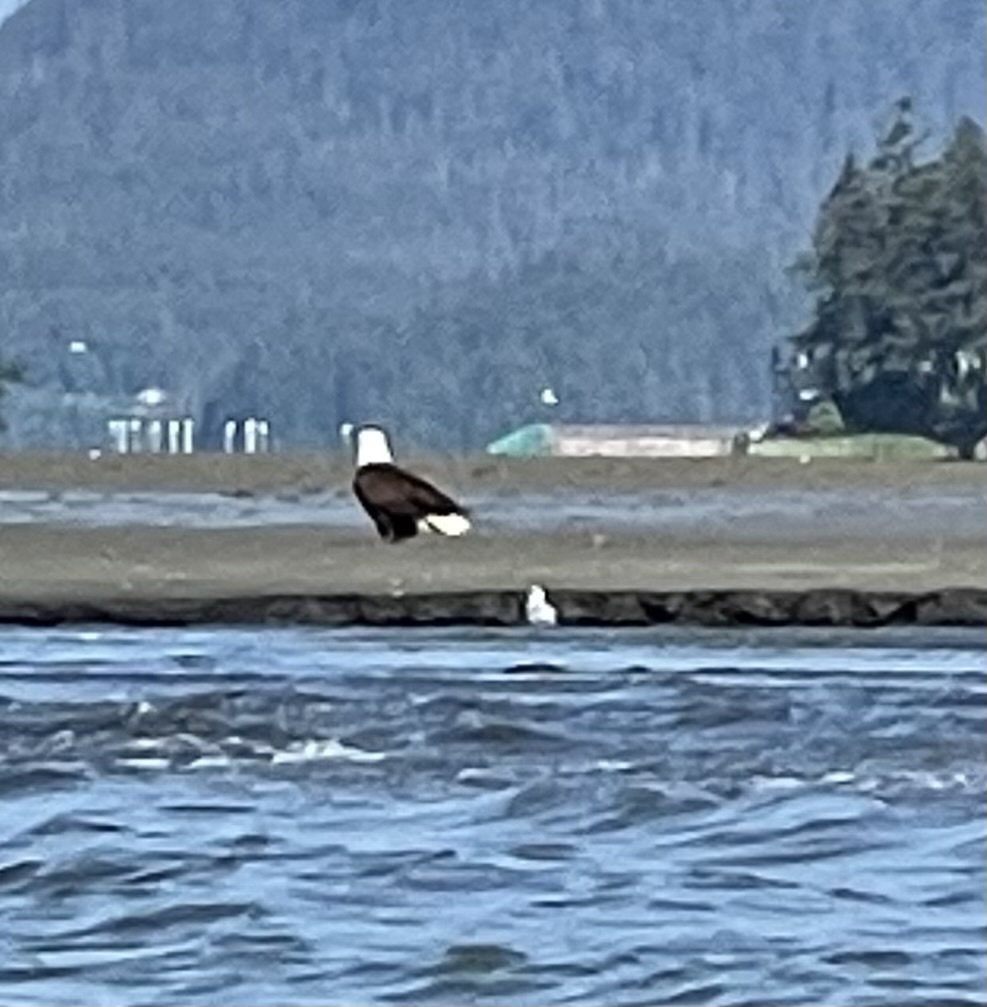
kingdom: Animalia
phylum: Chordata
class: Aves
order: Accipitriformes
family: Accipitridae
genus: Haliaeetus
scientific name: Haliaeetus leucocephalus
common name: Bald eagle
